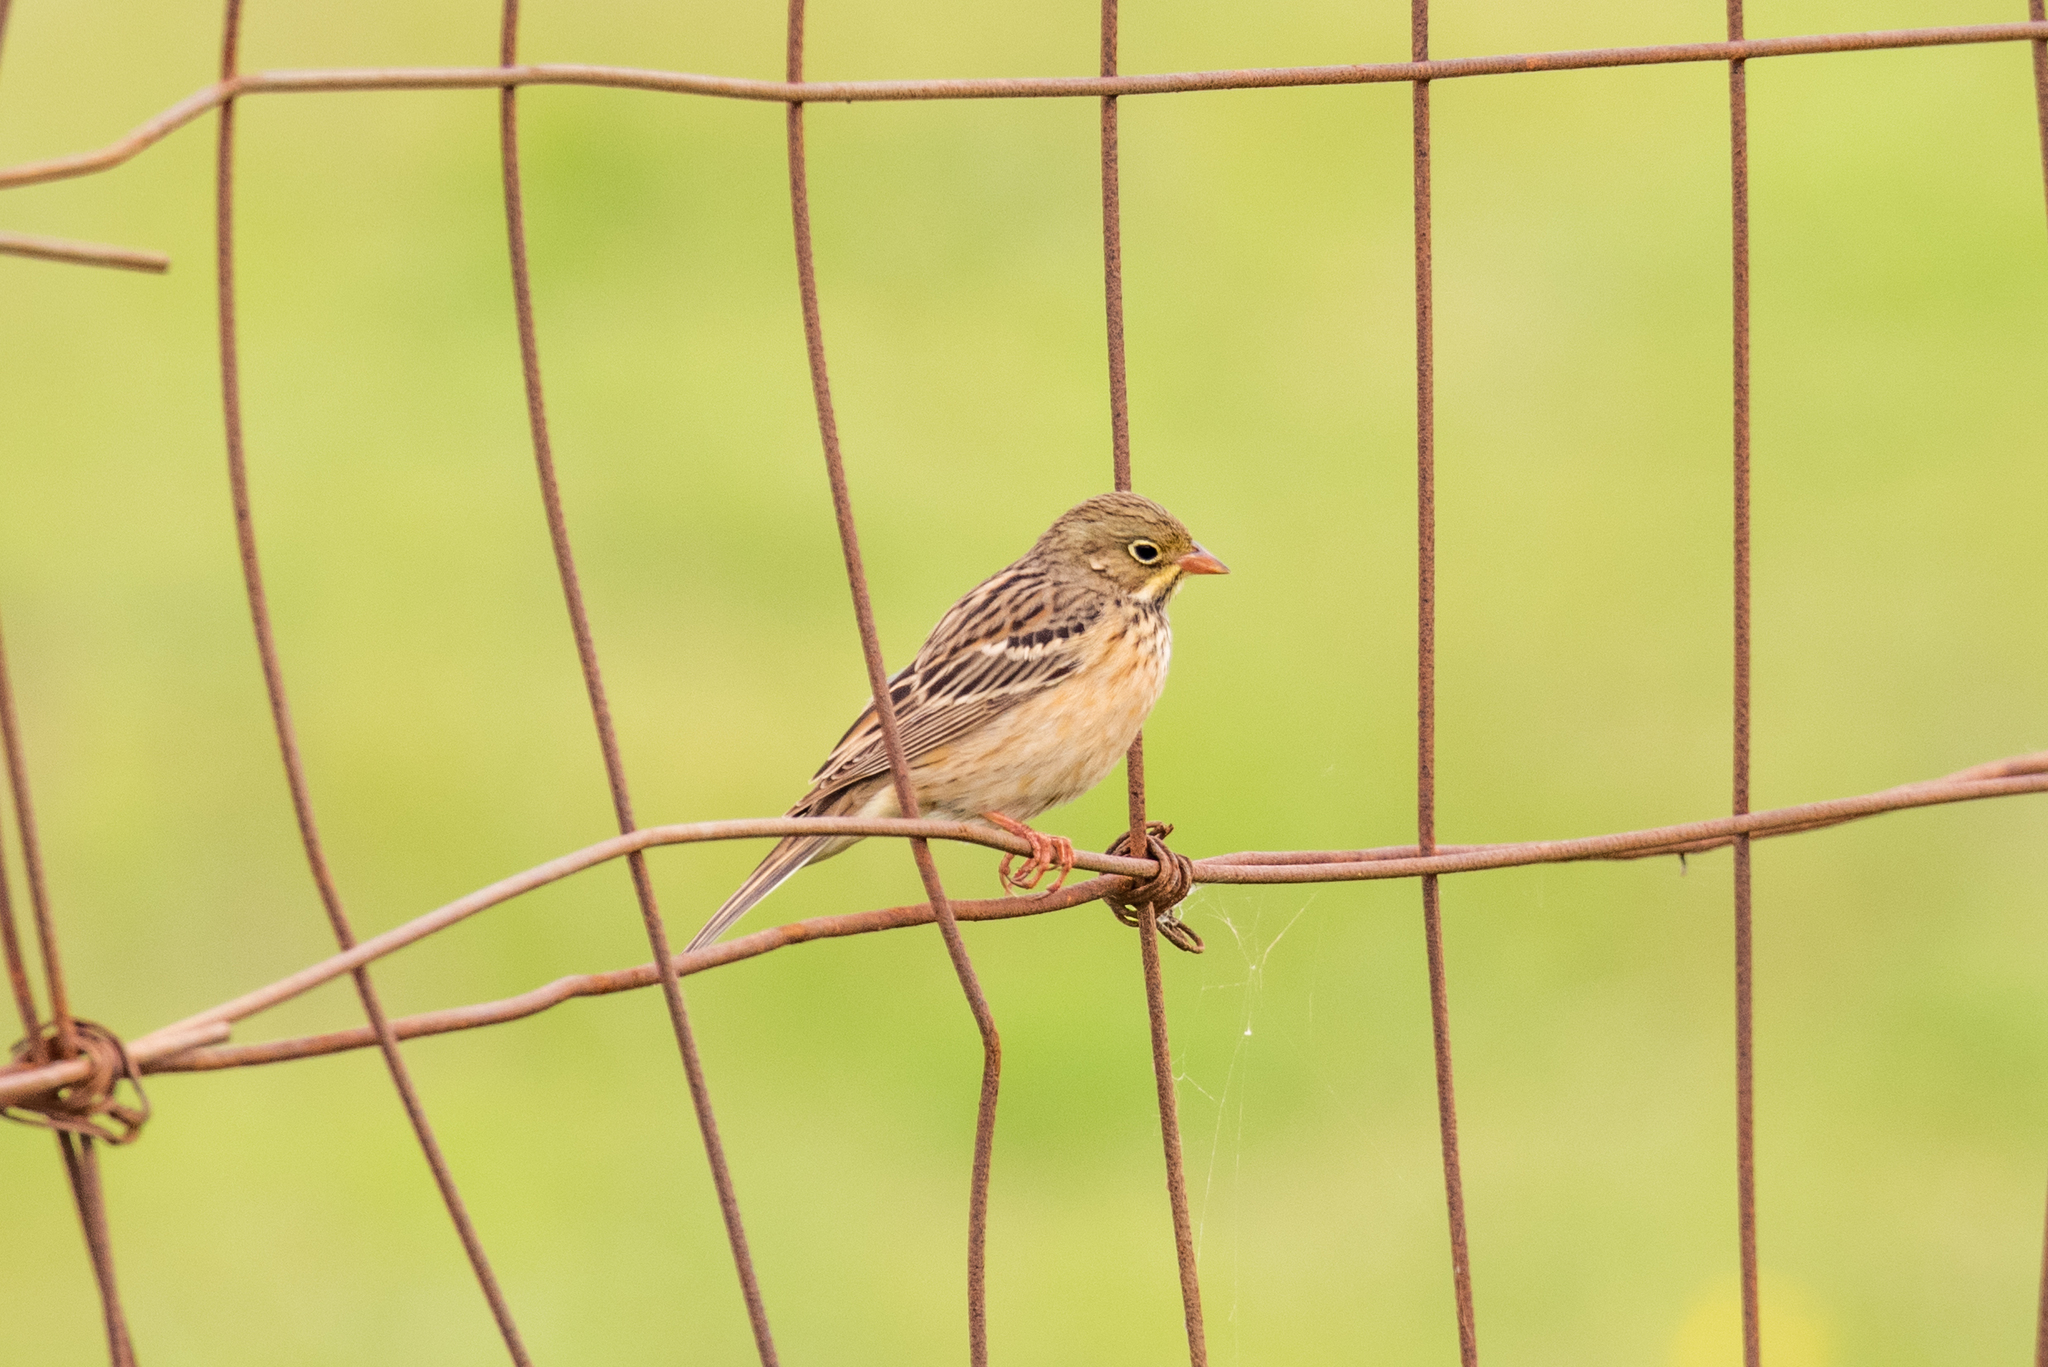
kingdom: Animalia
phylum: Chordata
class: Aves
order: Passeriformes
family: Emberizidae
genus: Emberiza
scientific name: Emberiza hortulana
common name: Ortolan bunting
